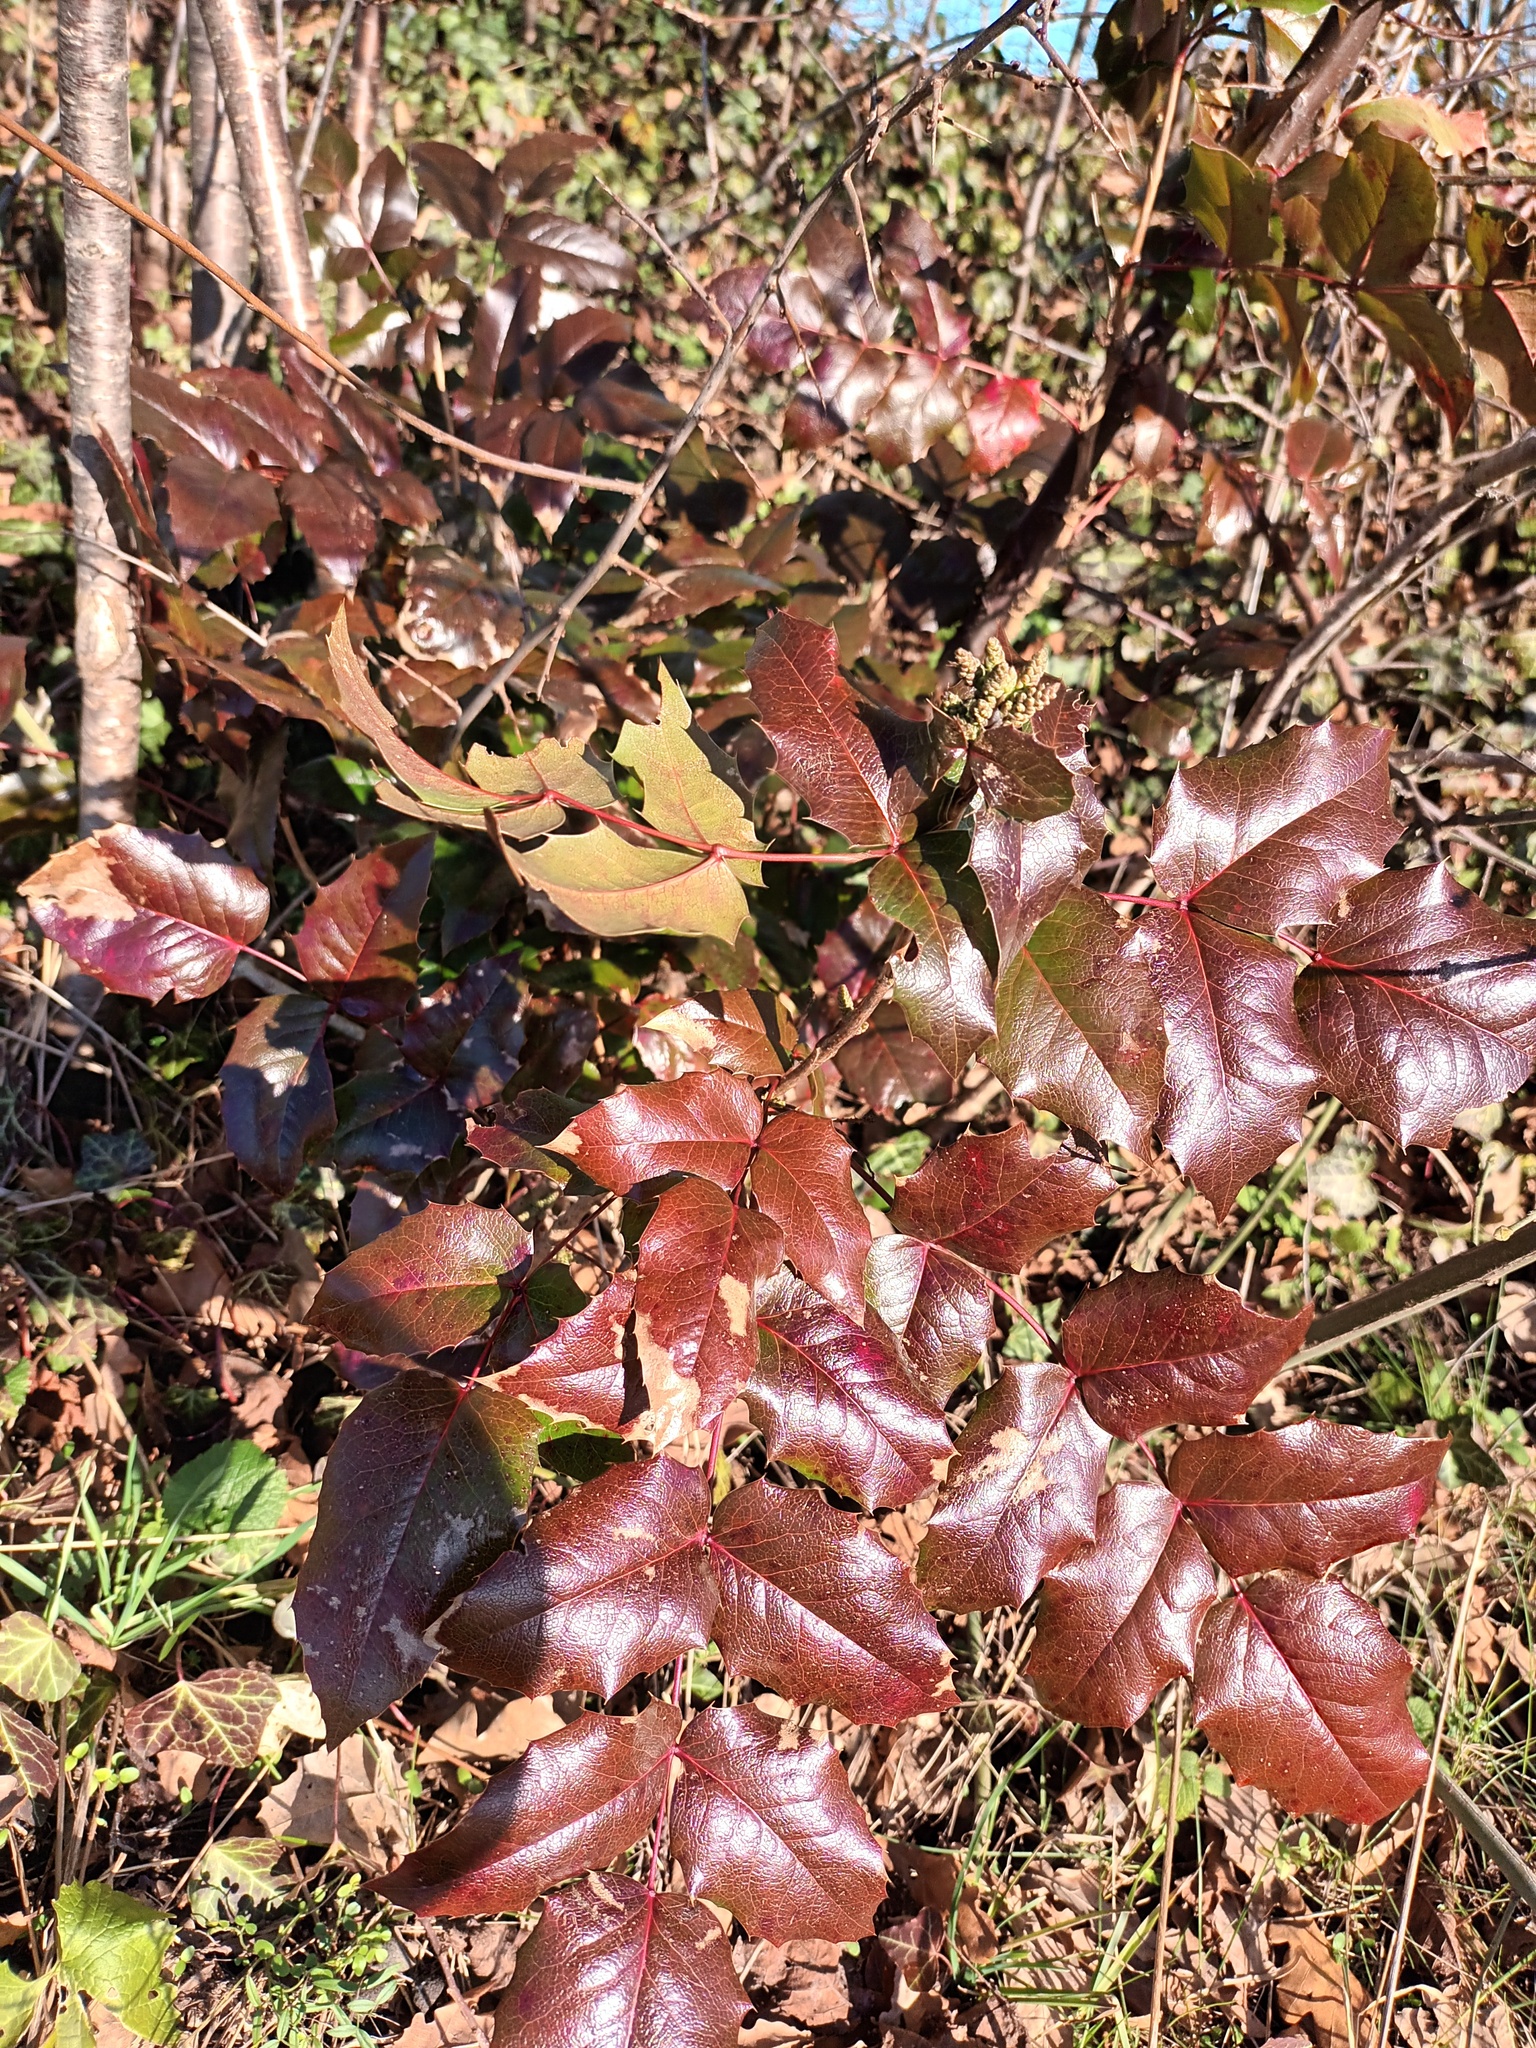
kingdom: Plantae
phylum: Tracheophyta
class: Magnoliopsida
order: Ranunculales
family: Berberidaceae
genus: Mahonia
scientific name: Mahonia aquifolium
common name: Oregon-grape
